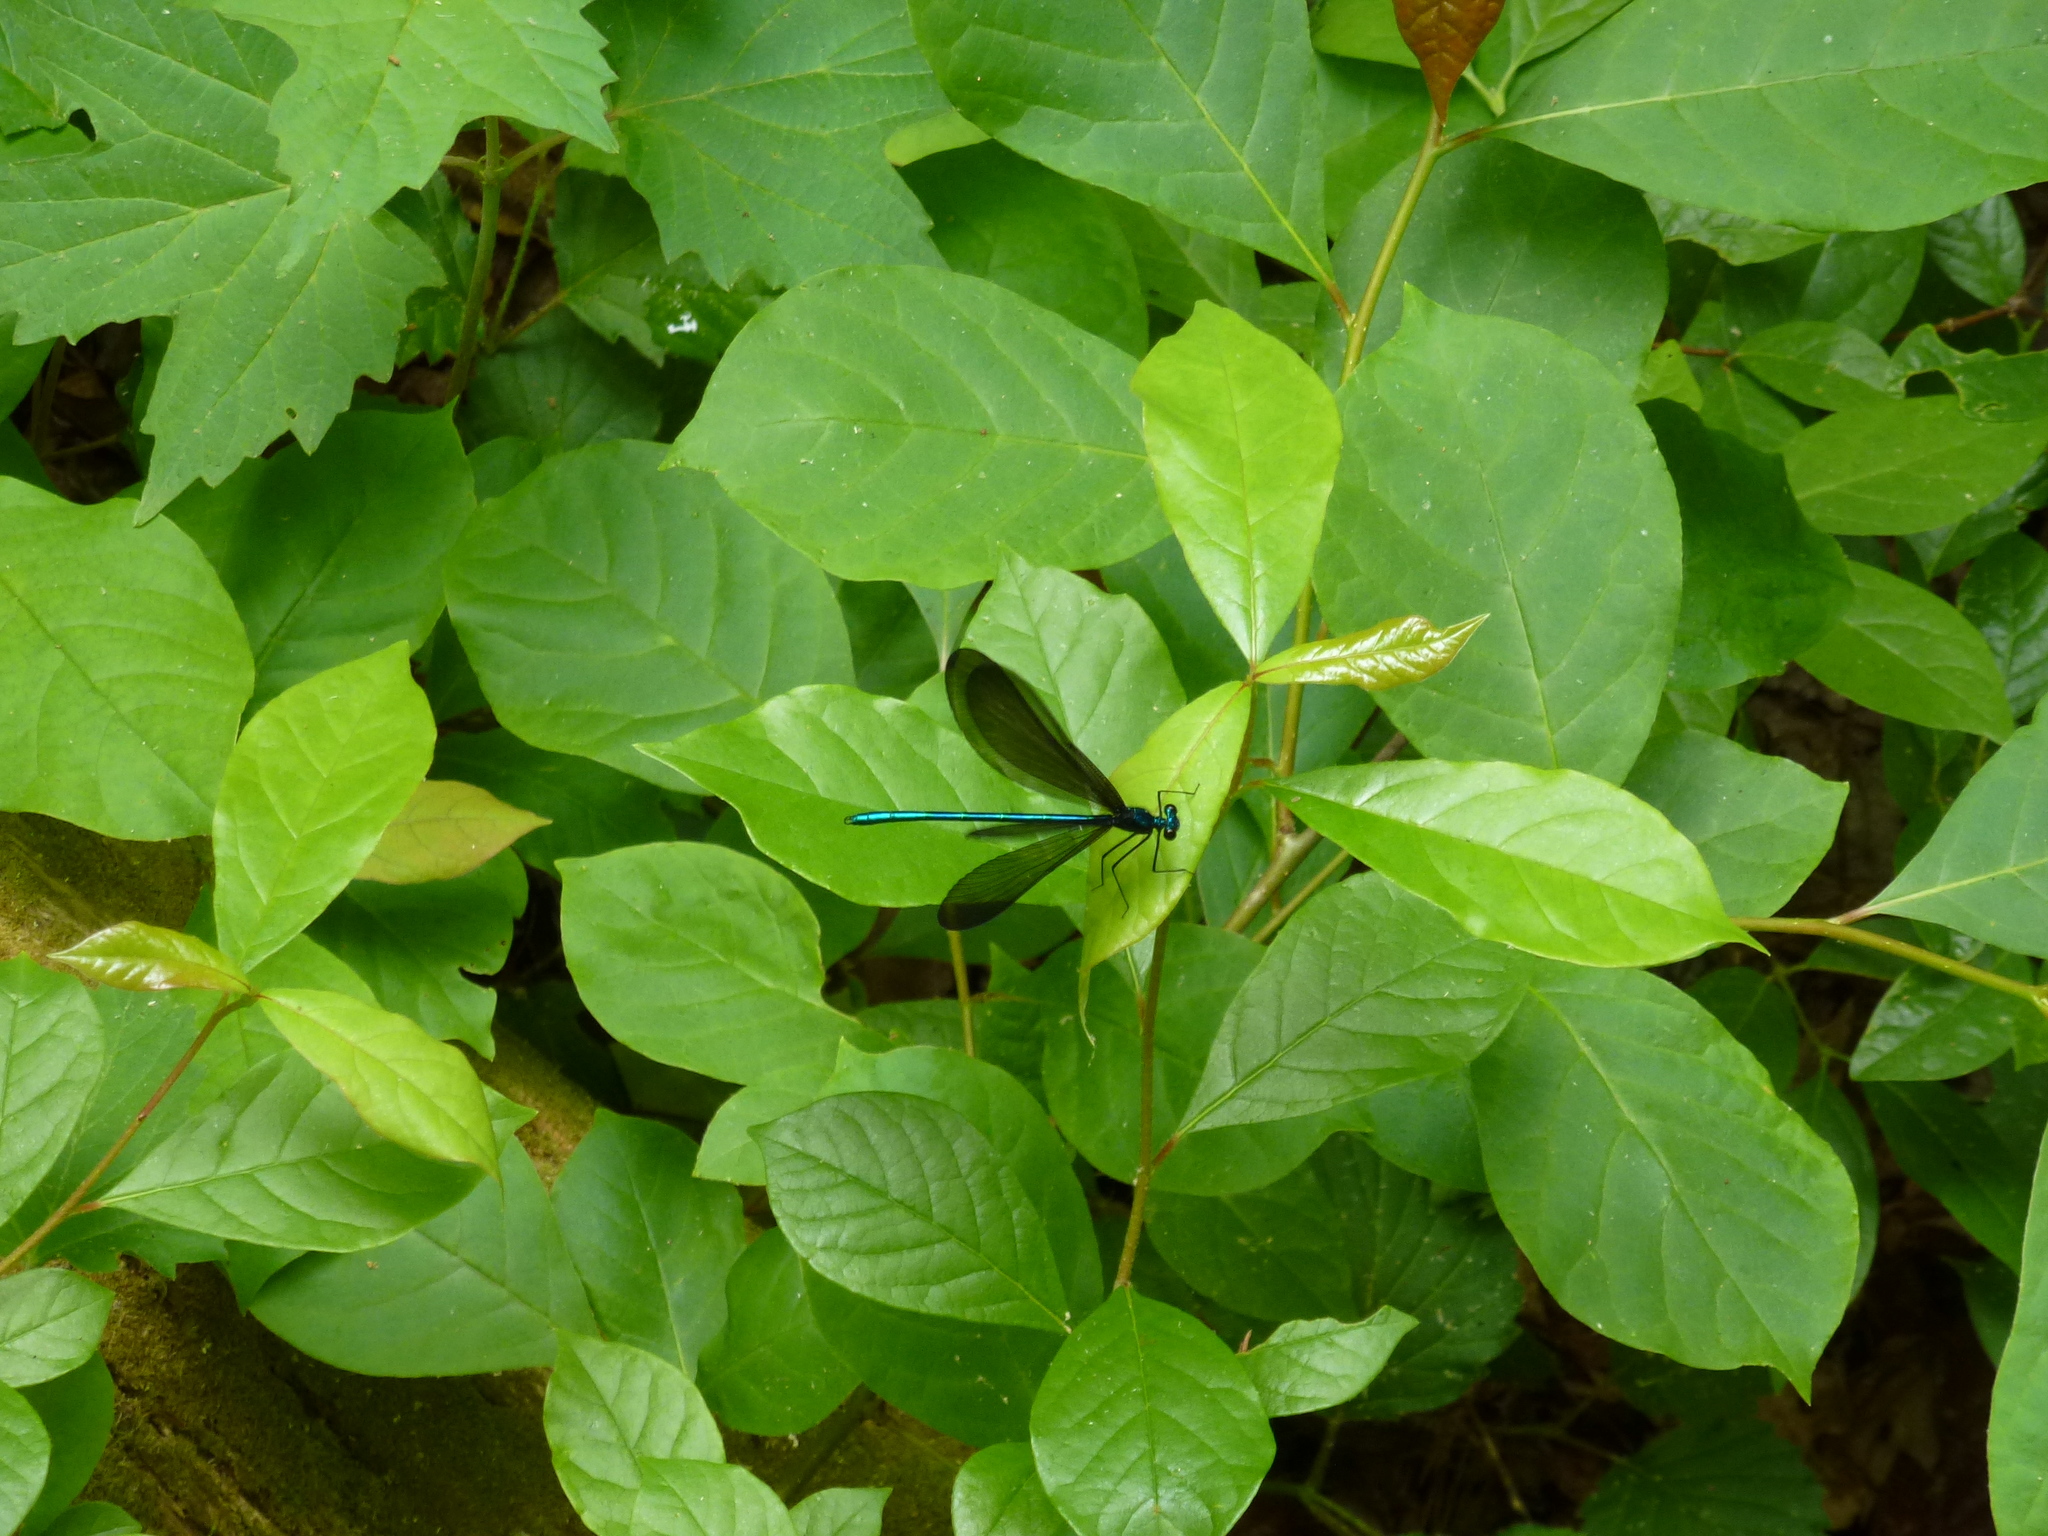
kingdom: Animalia
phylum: Arthropoda
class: Insecta
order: Odonata
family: Calopterygidae
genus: Calopteryx
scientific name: Calopteryx maculata
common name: Ebony jewelwing
